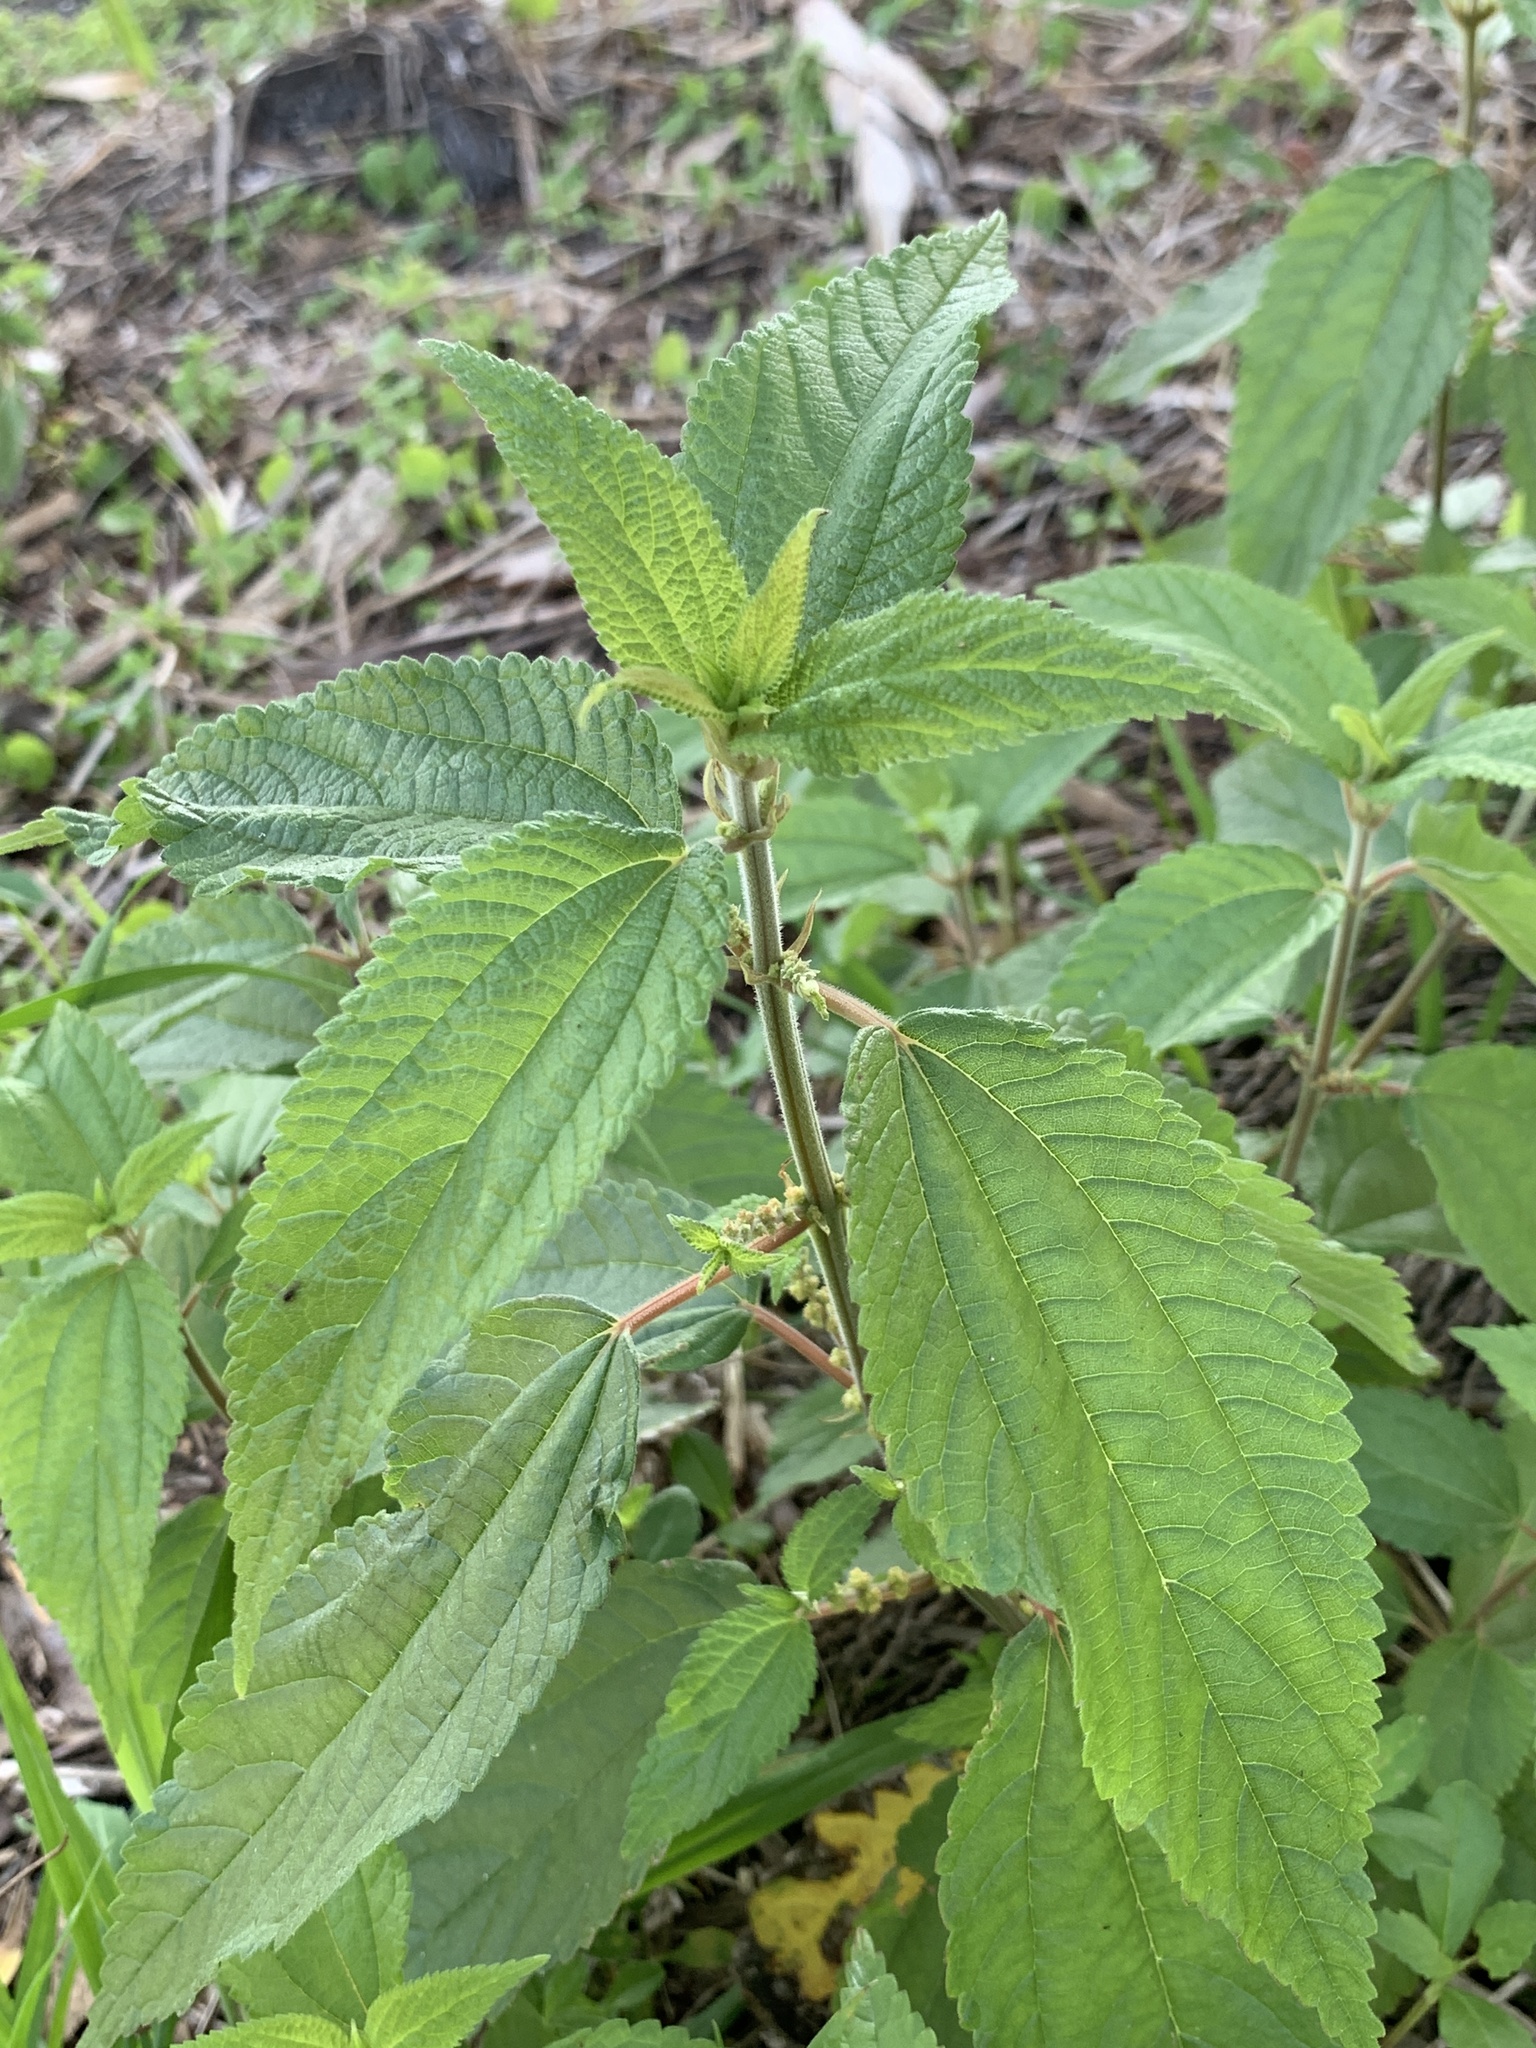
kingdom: Plantae
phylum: Tracheophyta
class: Magnoliopsida
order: Rosales
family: Urticaceae
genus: Boehmeria
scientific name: Boehmeria cylindrica
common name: Bog-hemp
